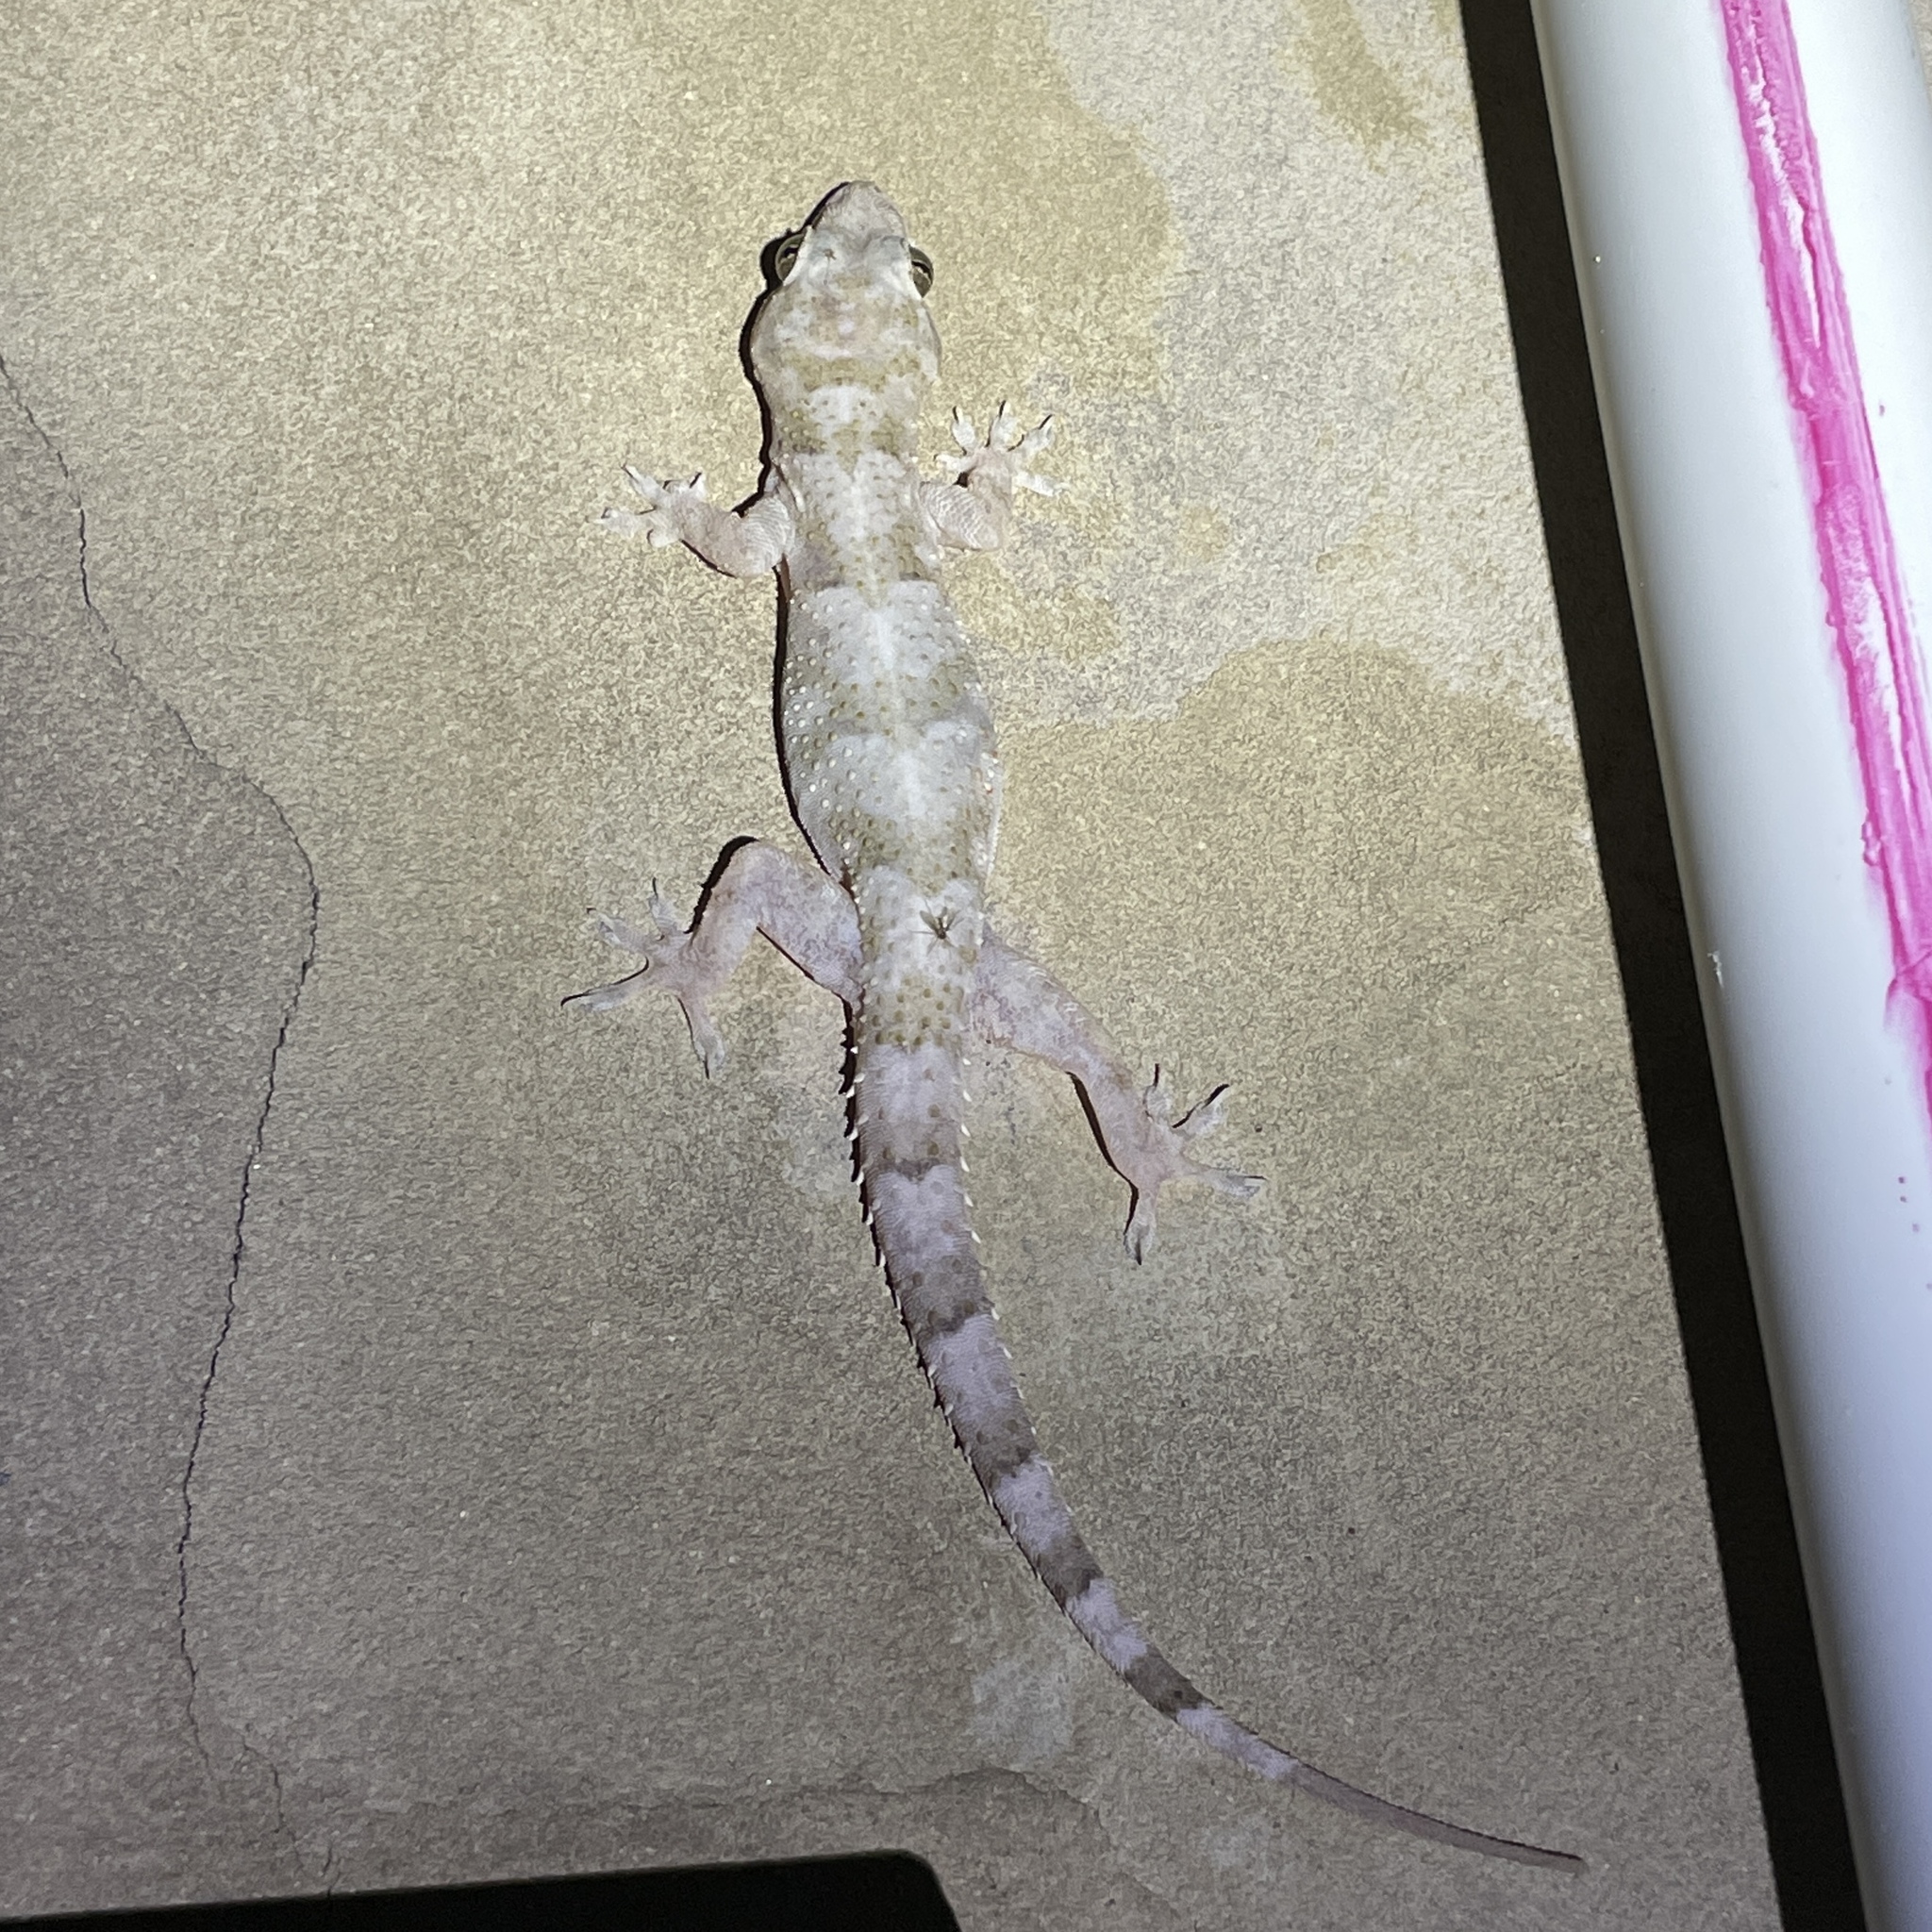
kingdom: Animalia
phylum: Chordata
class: Squamata
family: Gekkonidae
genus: Hemidactylus
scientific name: Hemidactylus mabouia
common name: House gecko
